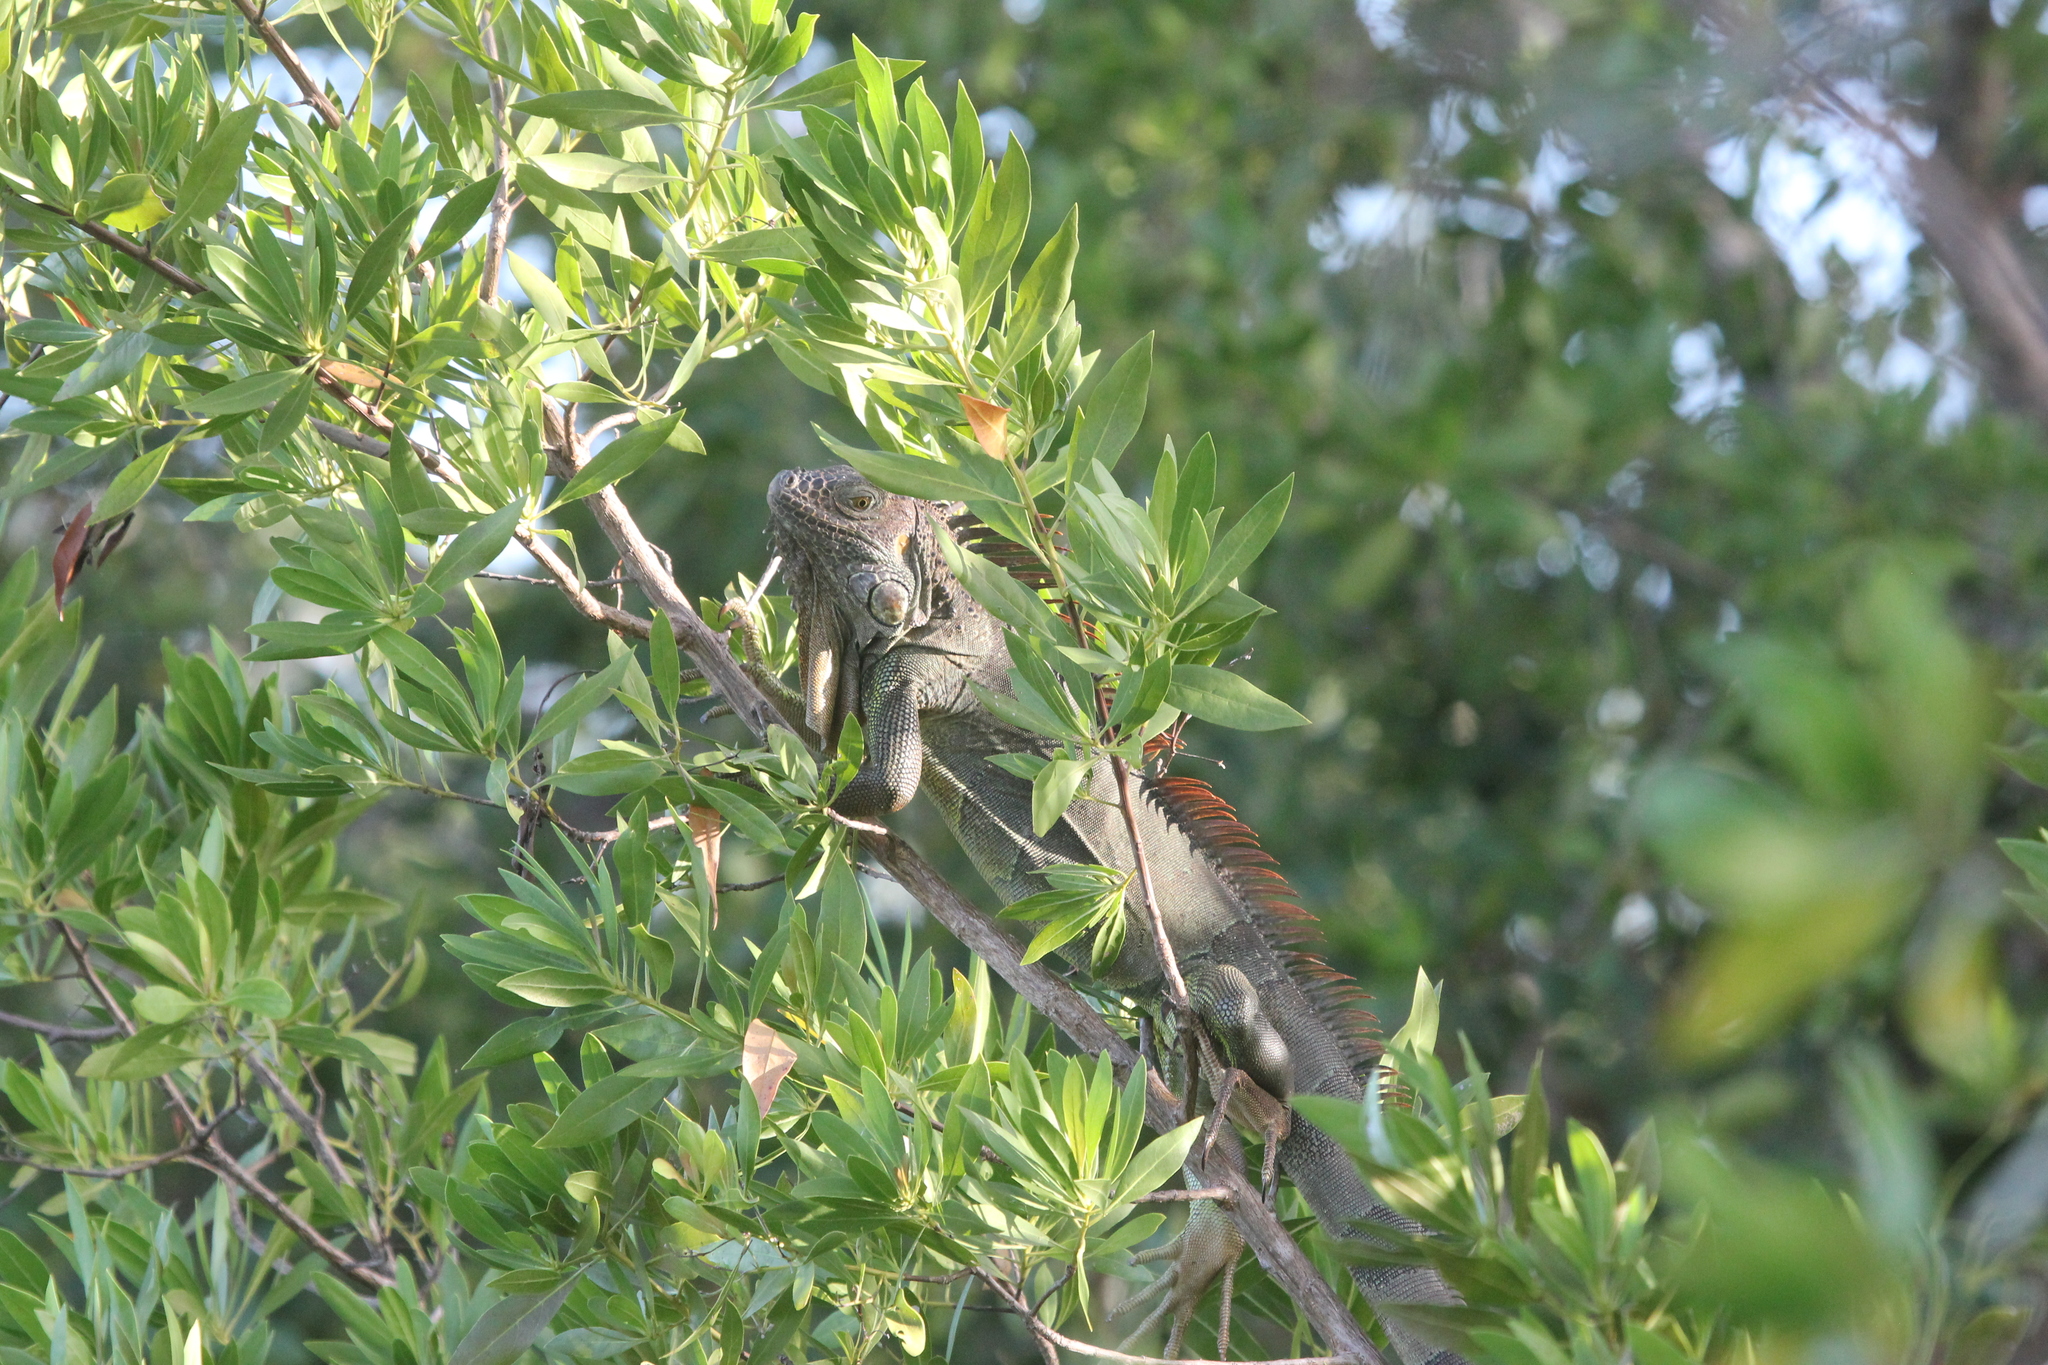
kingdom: Animalia
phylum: Chordata
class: Squamata
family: Iguanidae
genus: Iguana
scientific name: Iguana iguana
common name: Green iguana
